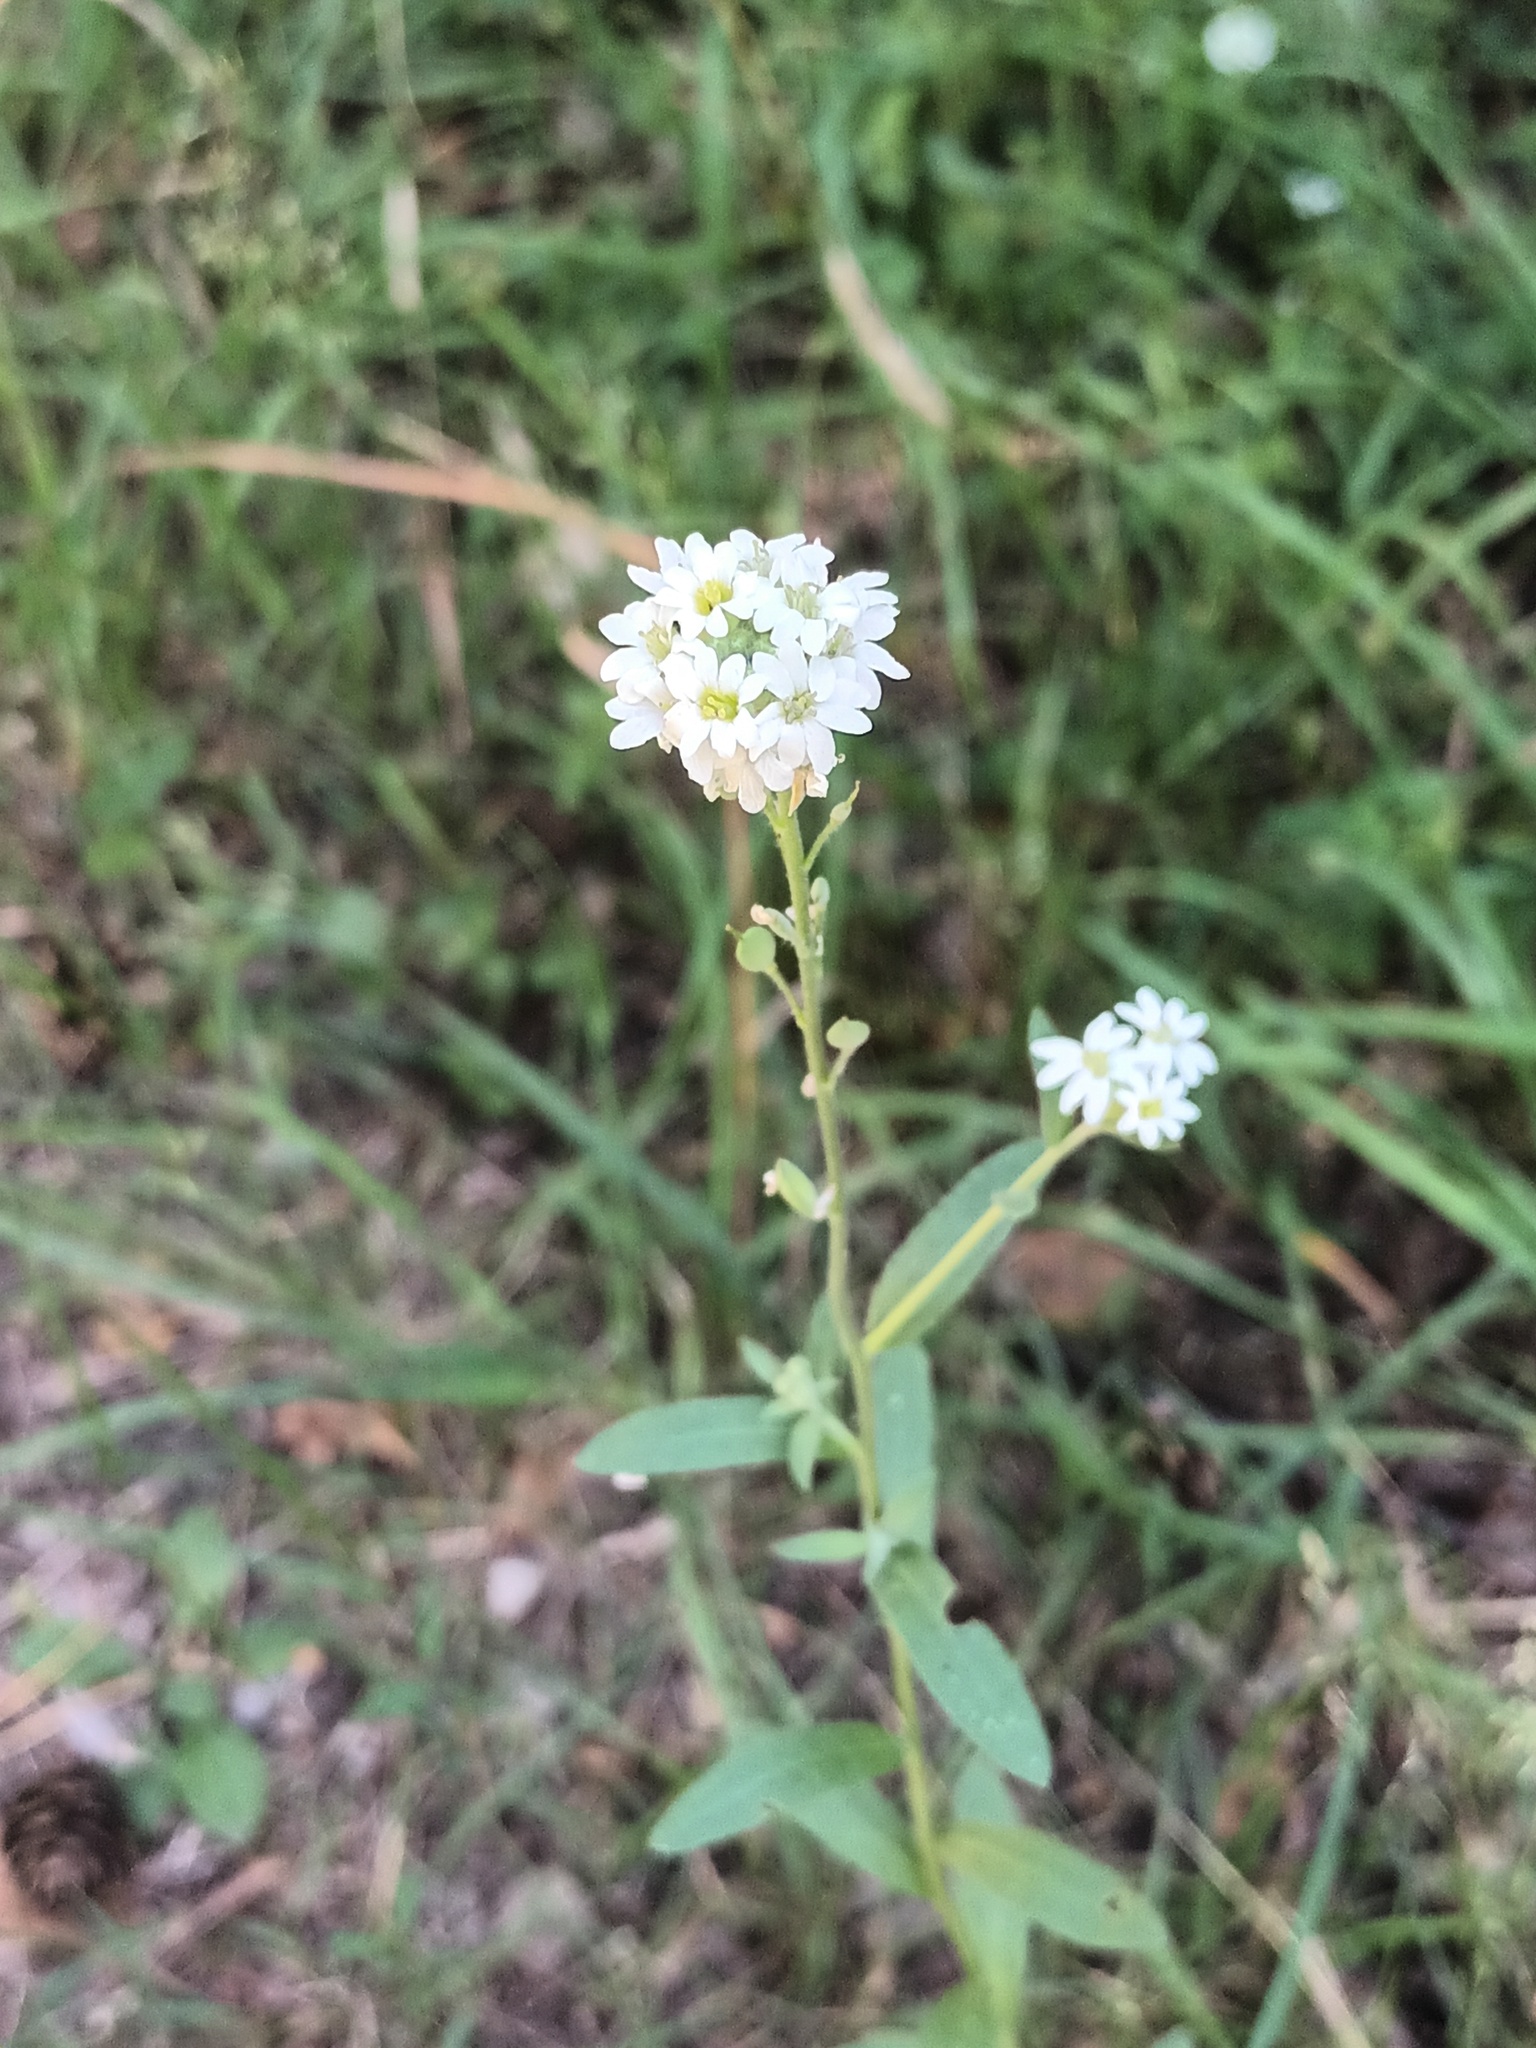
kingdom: Plantae
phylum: Tracheophyta
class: Magnoliopsida
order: Brassicales
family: Brassicaceae
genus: Berteroa
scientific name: Berteroa incana
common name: Hoary alison
